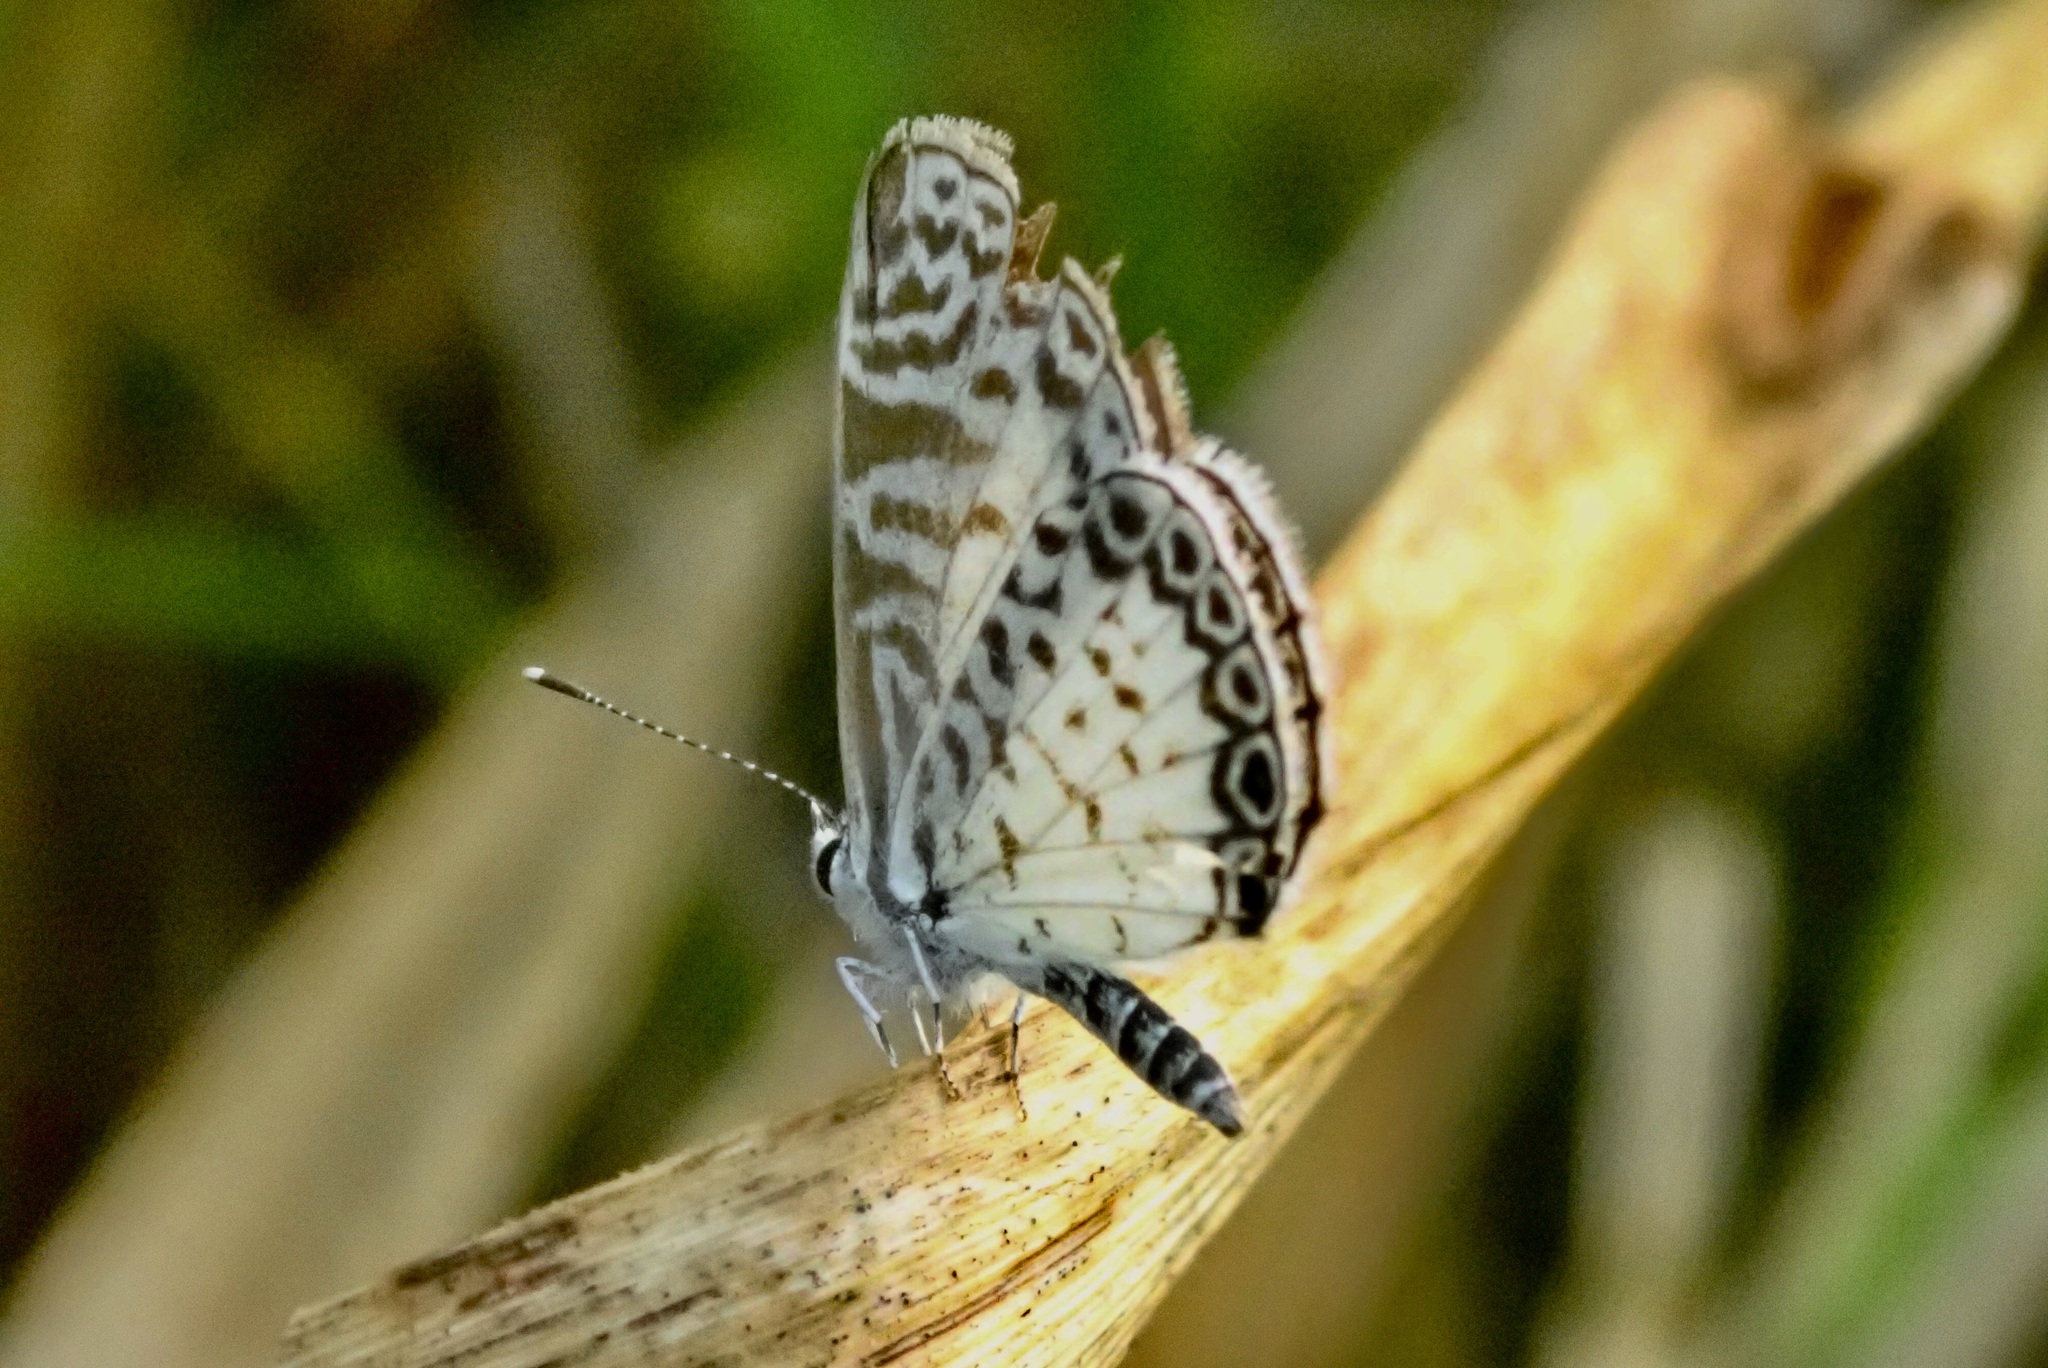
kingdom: Animalia
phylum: Arthropoda
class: Insecta
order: Lepidoptera
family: Lycaenidae
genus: Leptotes
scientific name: Leptotes cassius
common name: Cassius blue
